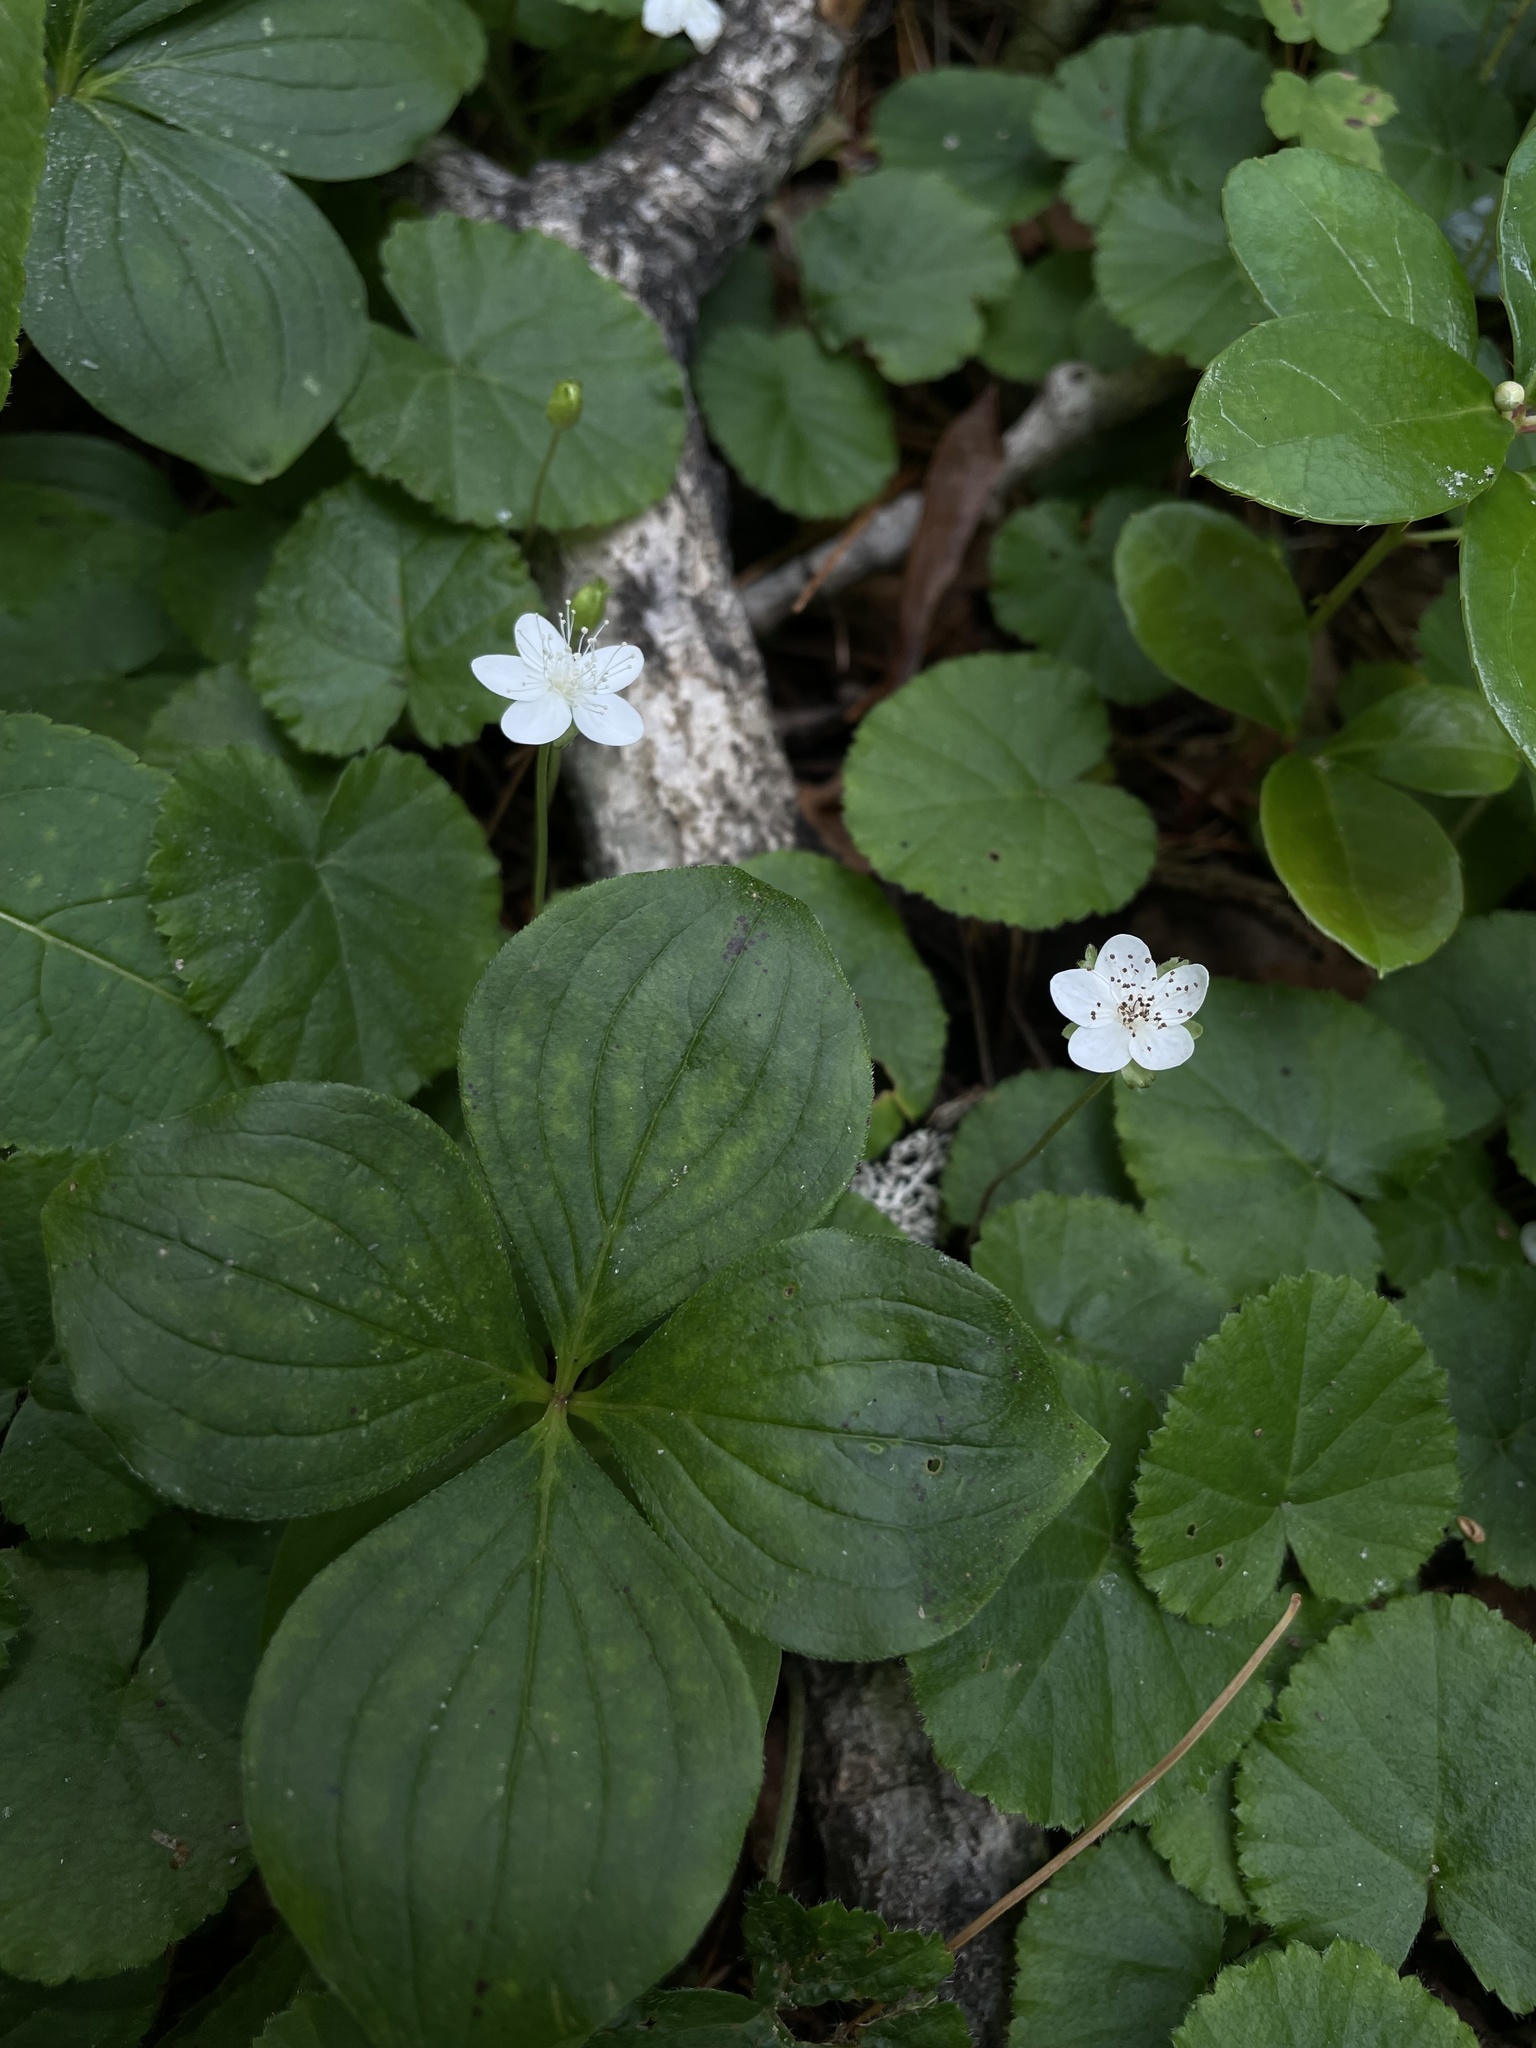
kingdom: Plantae
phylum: Tracheophyta
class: Magnoliopsida
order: Rosales
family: Rosaceae
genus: Dalibarda
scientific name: Dalibarda repens
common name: Dewdrop
